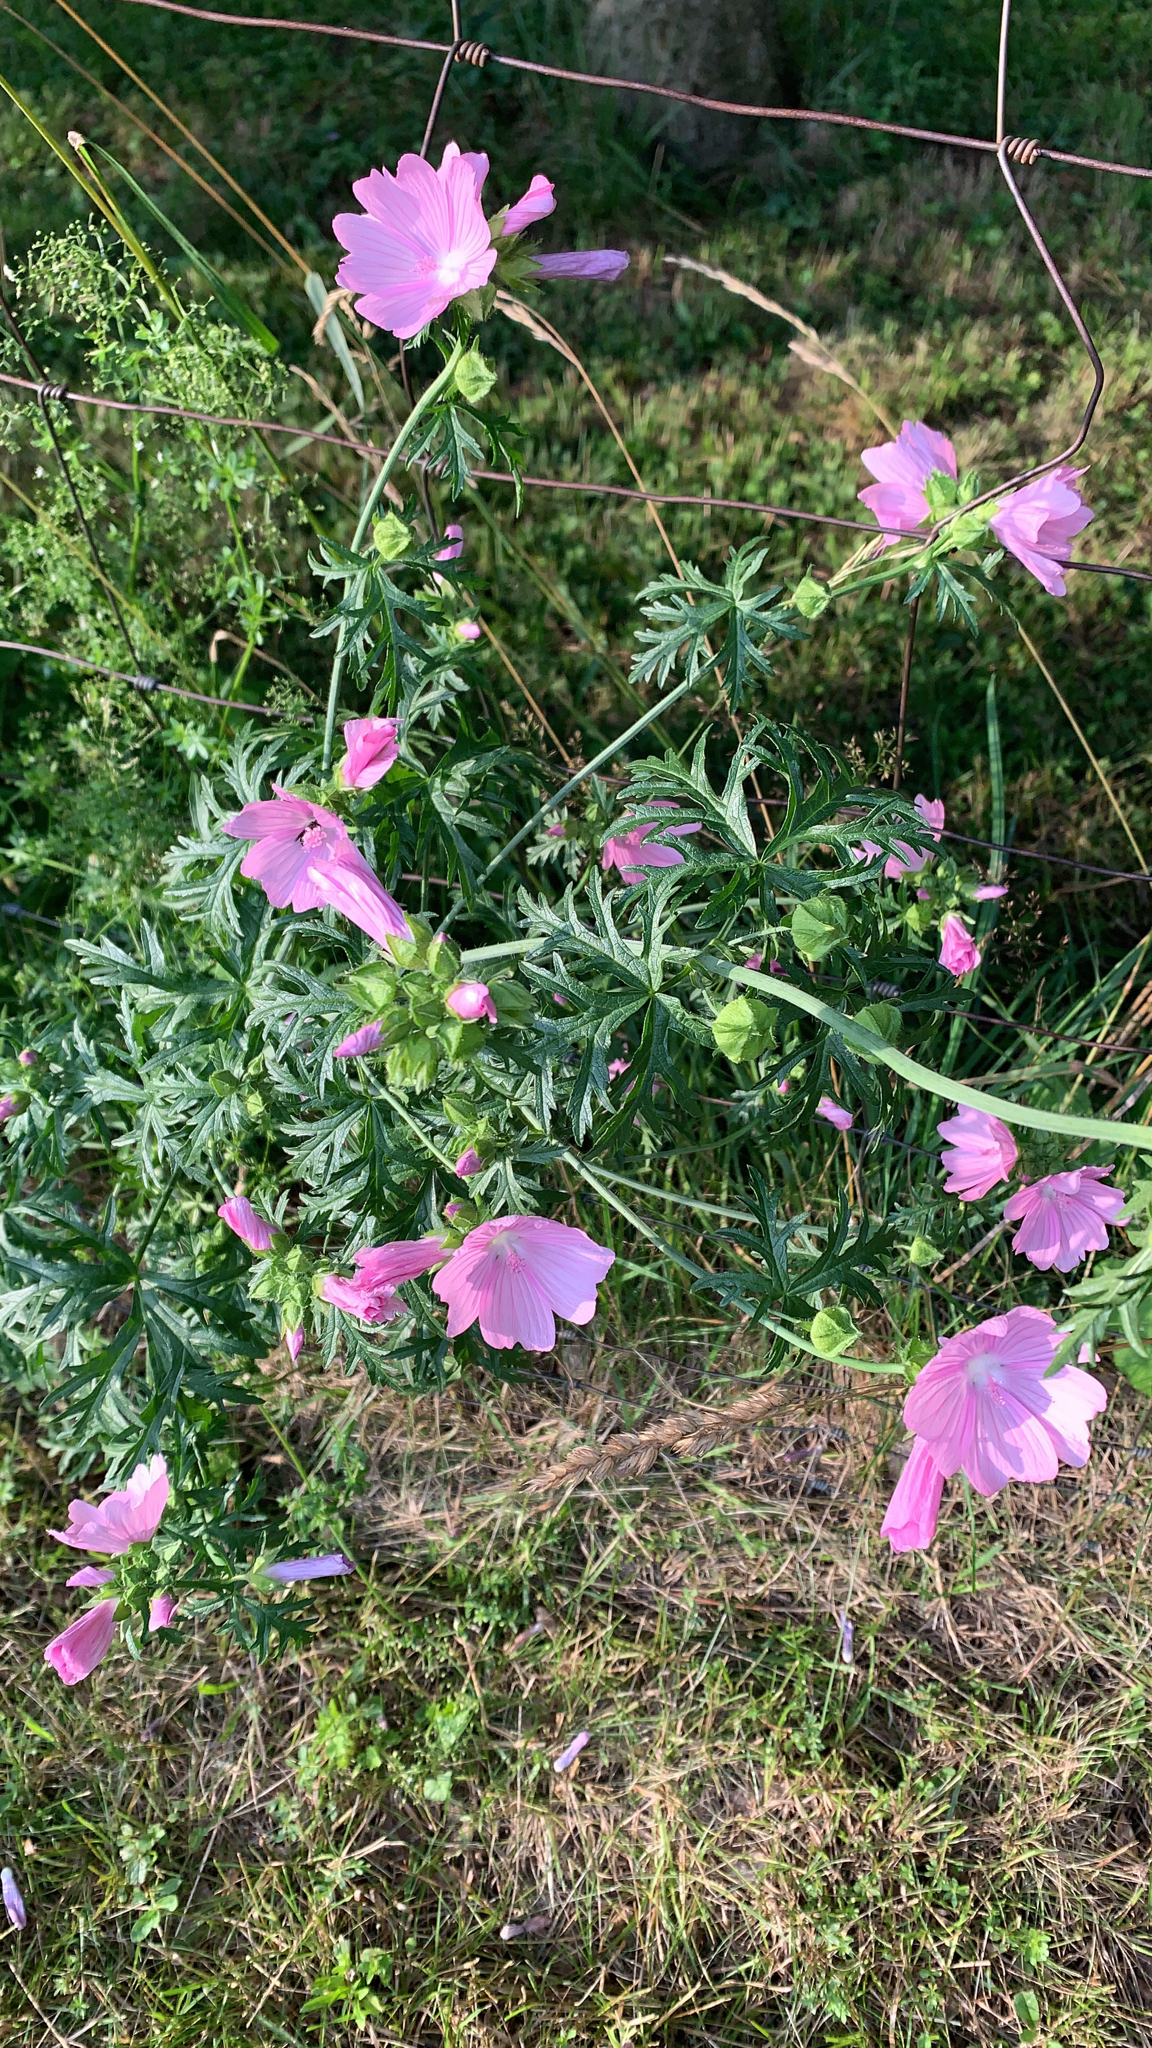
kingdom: Plantae
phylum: Tracheophyta
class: Magnoliopsida
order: Malvales
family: Malvaceae
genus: Malva
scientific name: Malva moschata
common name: Musk mallow
